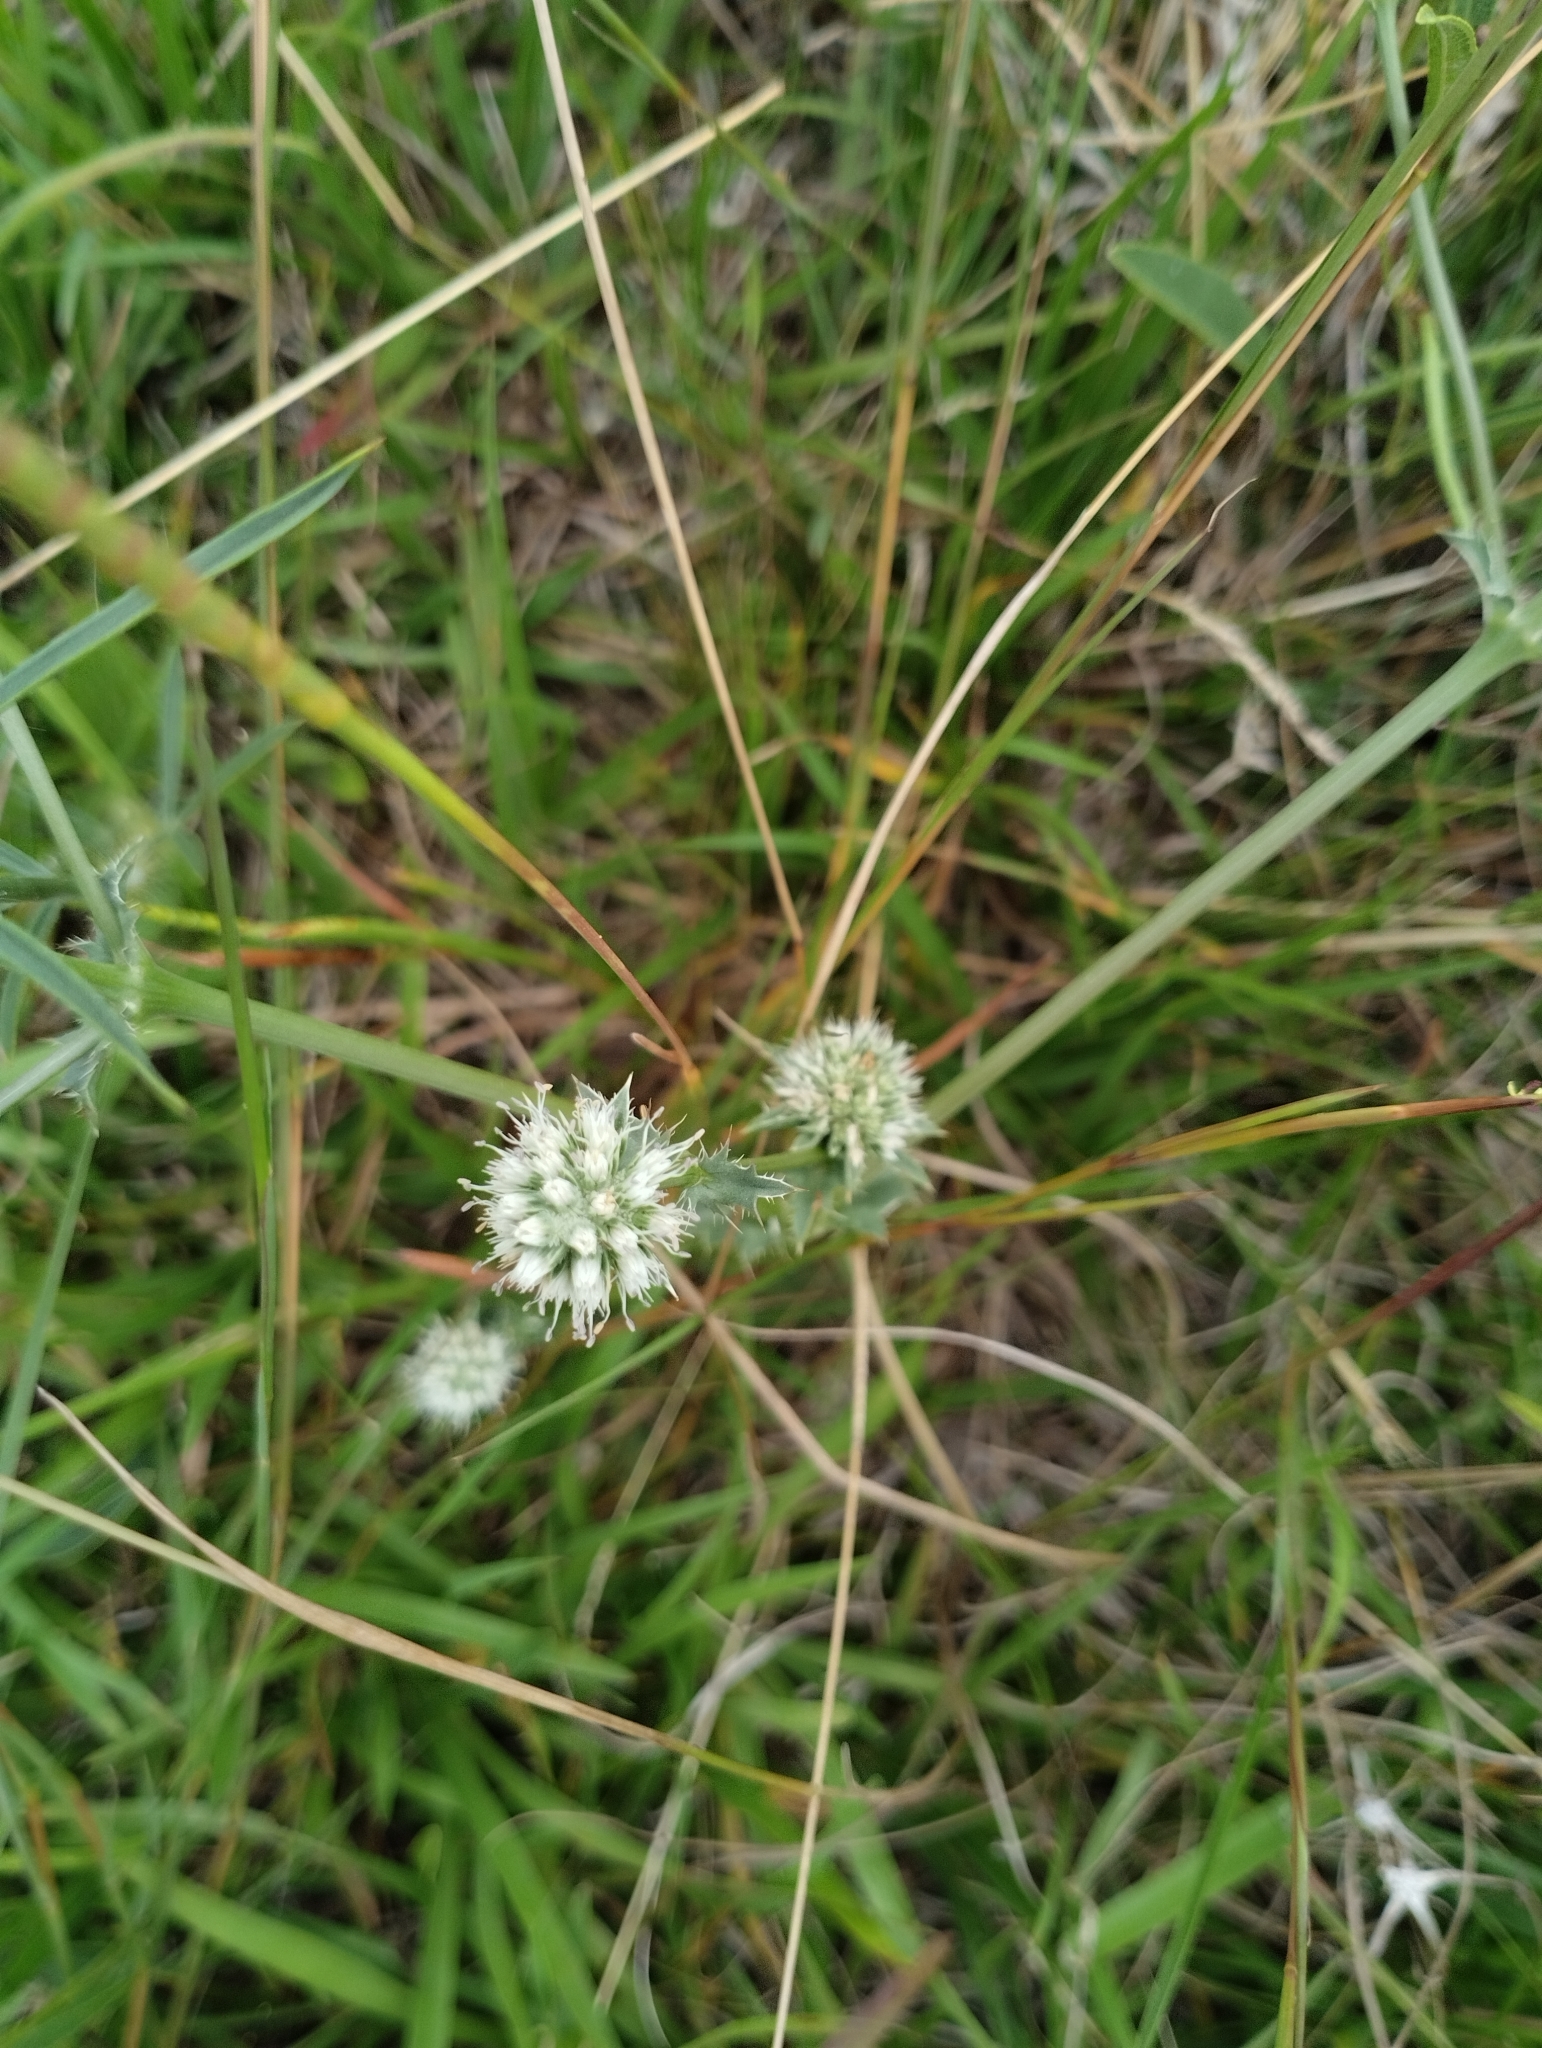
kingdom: Plantae
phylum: Tracheophyta
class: Magnoliopsida
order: Apiales
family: Apiaceae
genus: Eryngium
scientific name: Eryngium nudicaule
